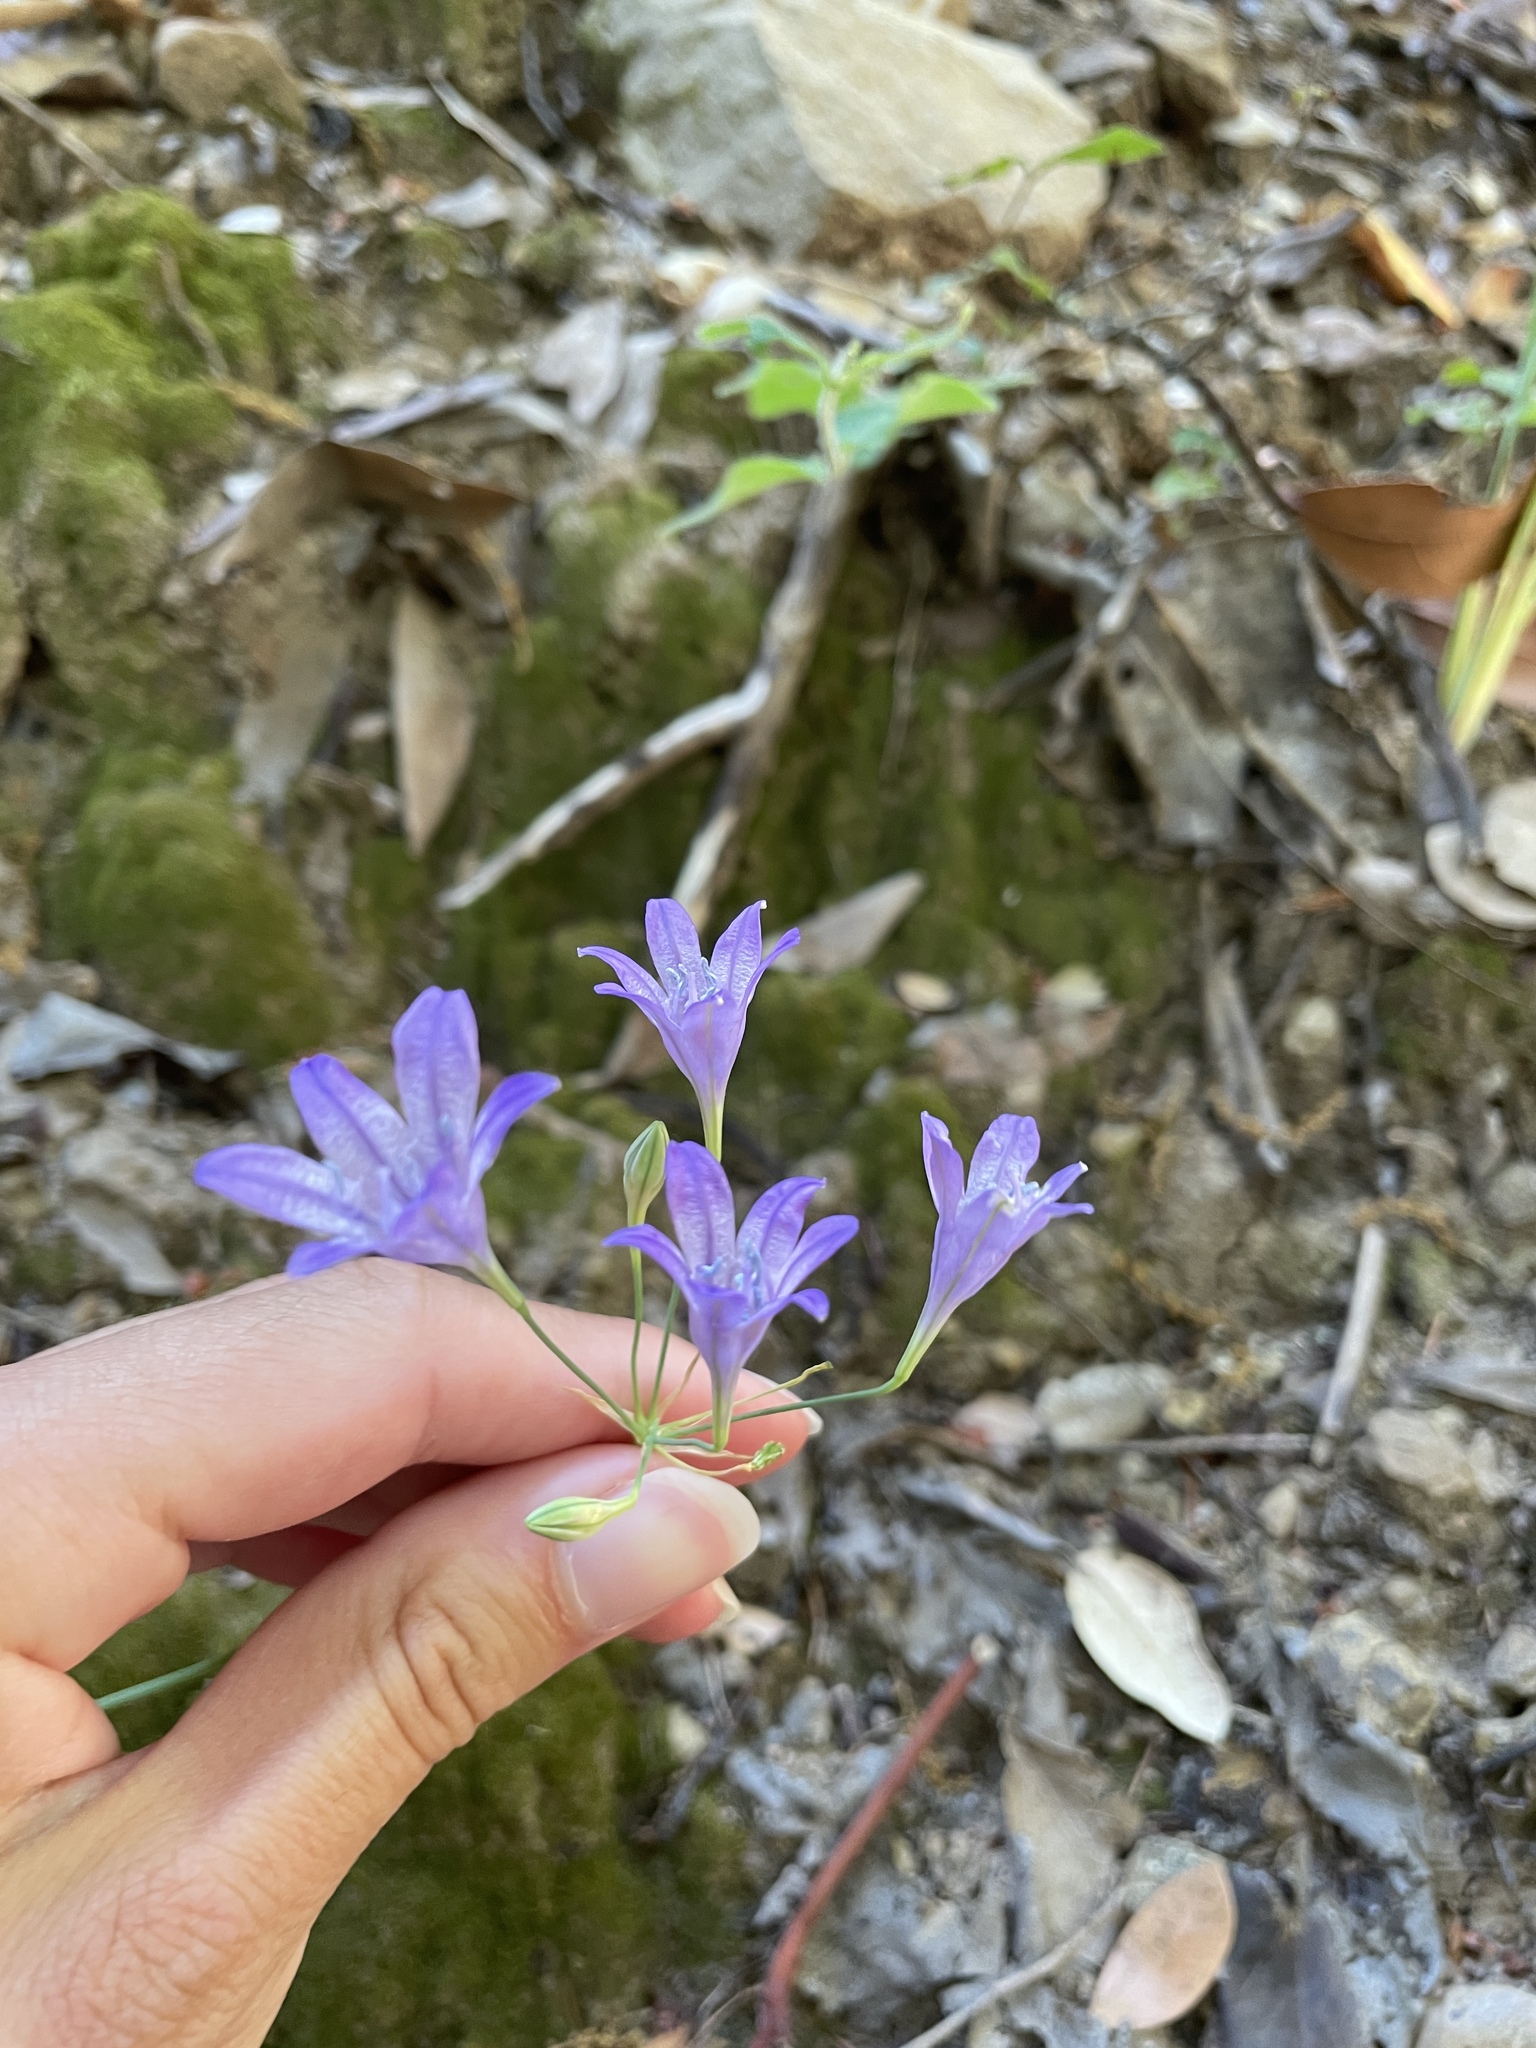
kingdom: Plantae
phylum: Tracheophyta
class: Liliopsida
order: Asparagales
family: Asparagaceae
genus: Triteleia
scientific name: Triteleia laxa
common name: Triplet-lily
